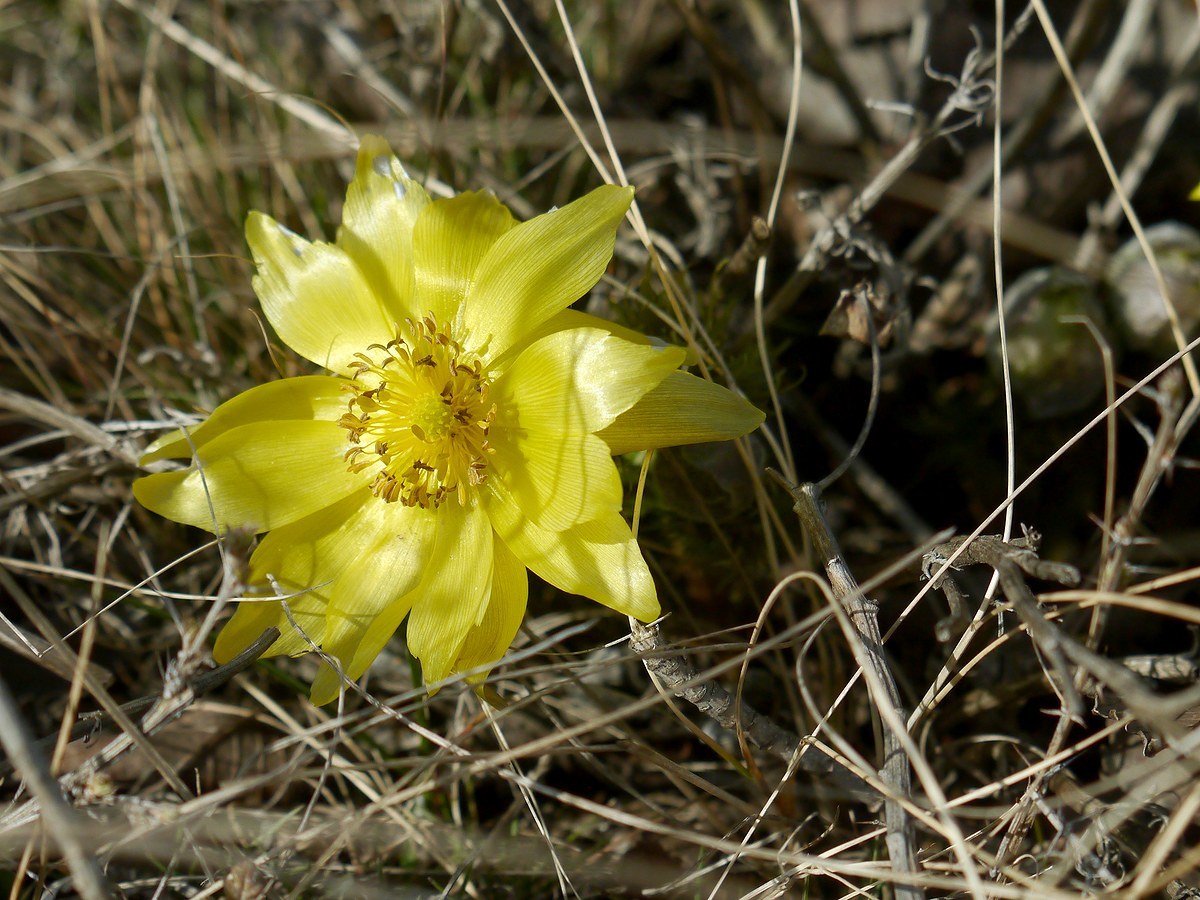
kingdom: Plantae
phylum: Tracheophyta
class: Magnoliopsida
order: Ranunculales
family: Ranunculaceae
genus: Adonis
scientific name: Adonis vernalis
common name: Yellow pheasants-eye
